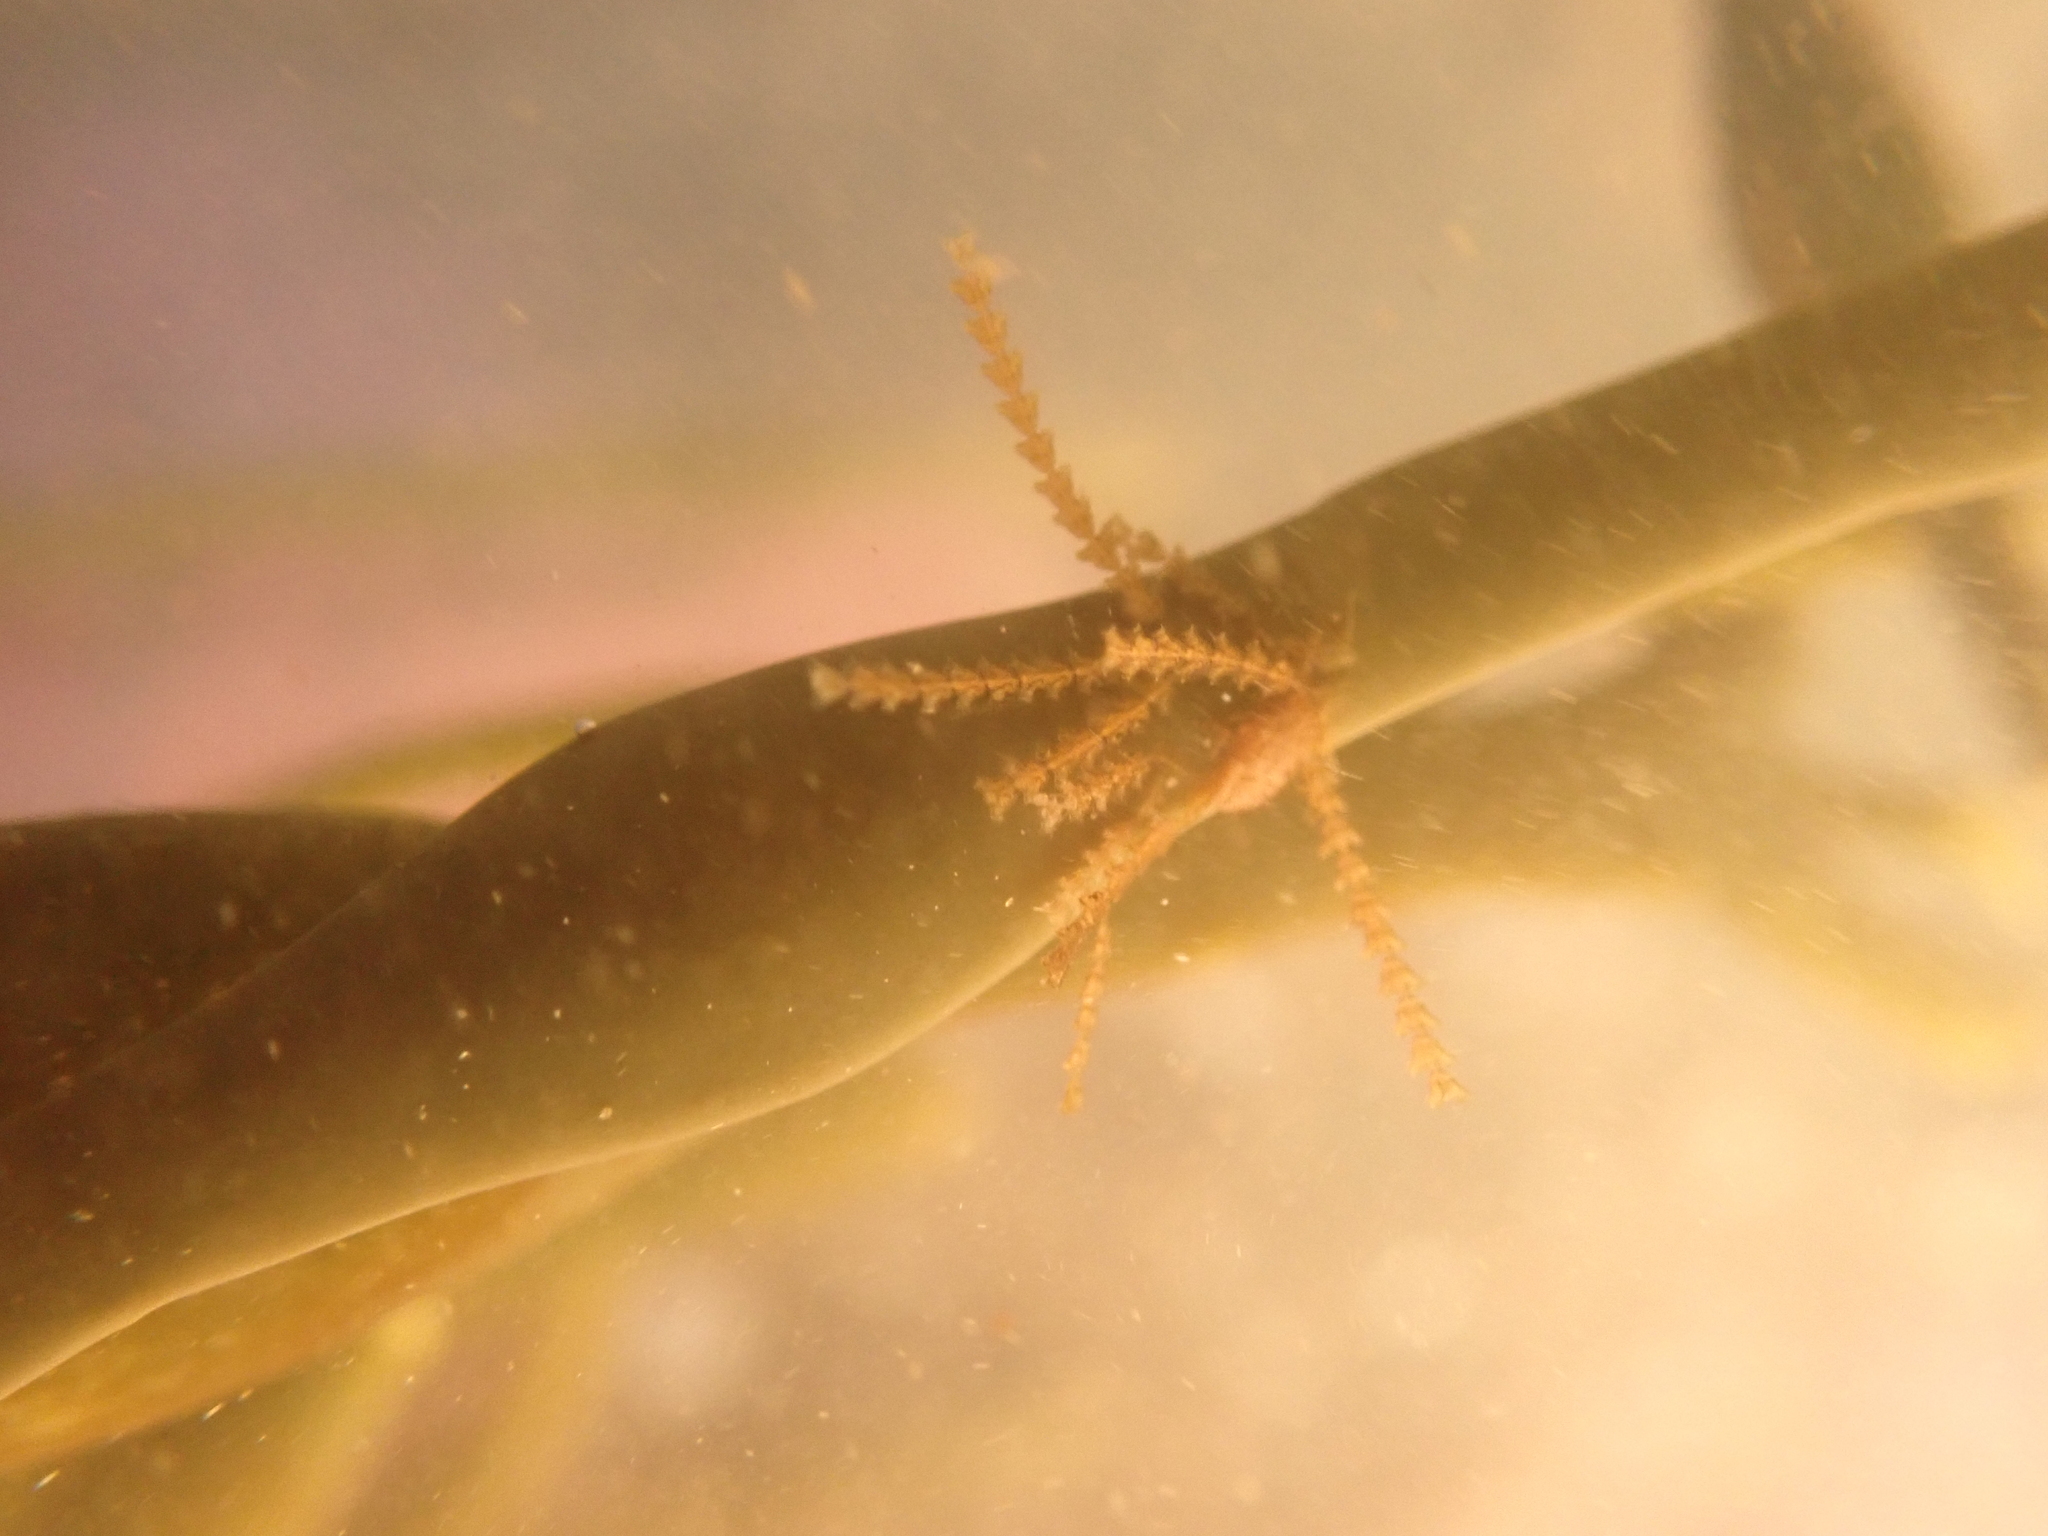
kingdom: Animalia
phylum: Cnidaria
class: Hydrozoa
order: Leptothecata
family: Sertulariidae
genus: Dynamena
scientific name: Dynamena pumila
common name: Sea oak
